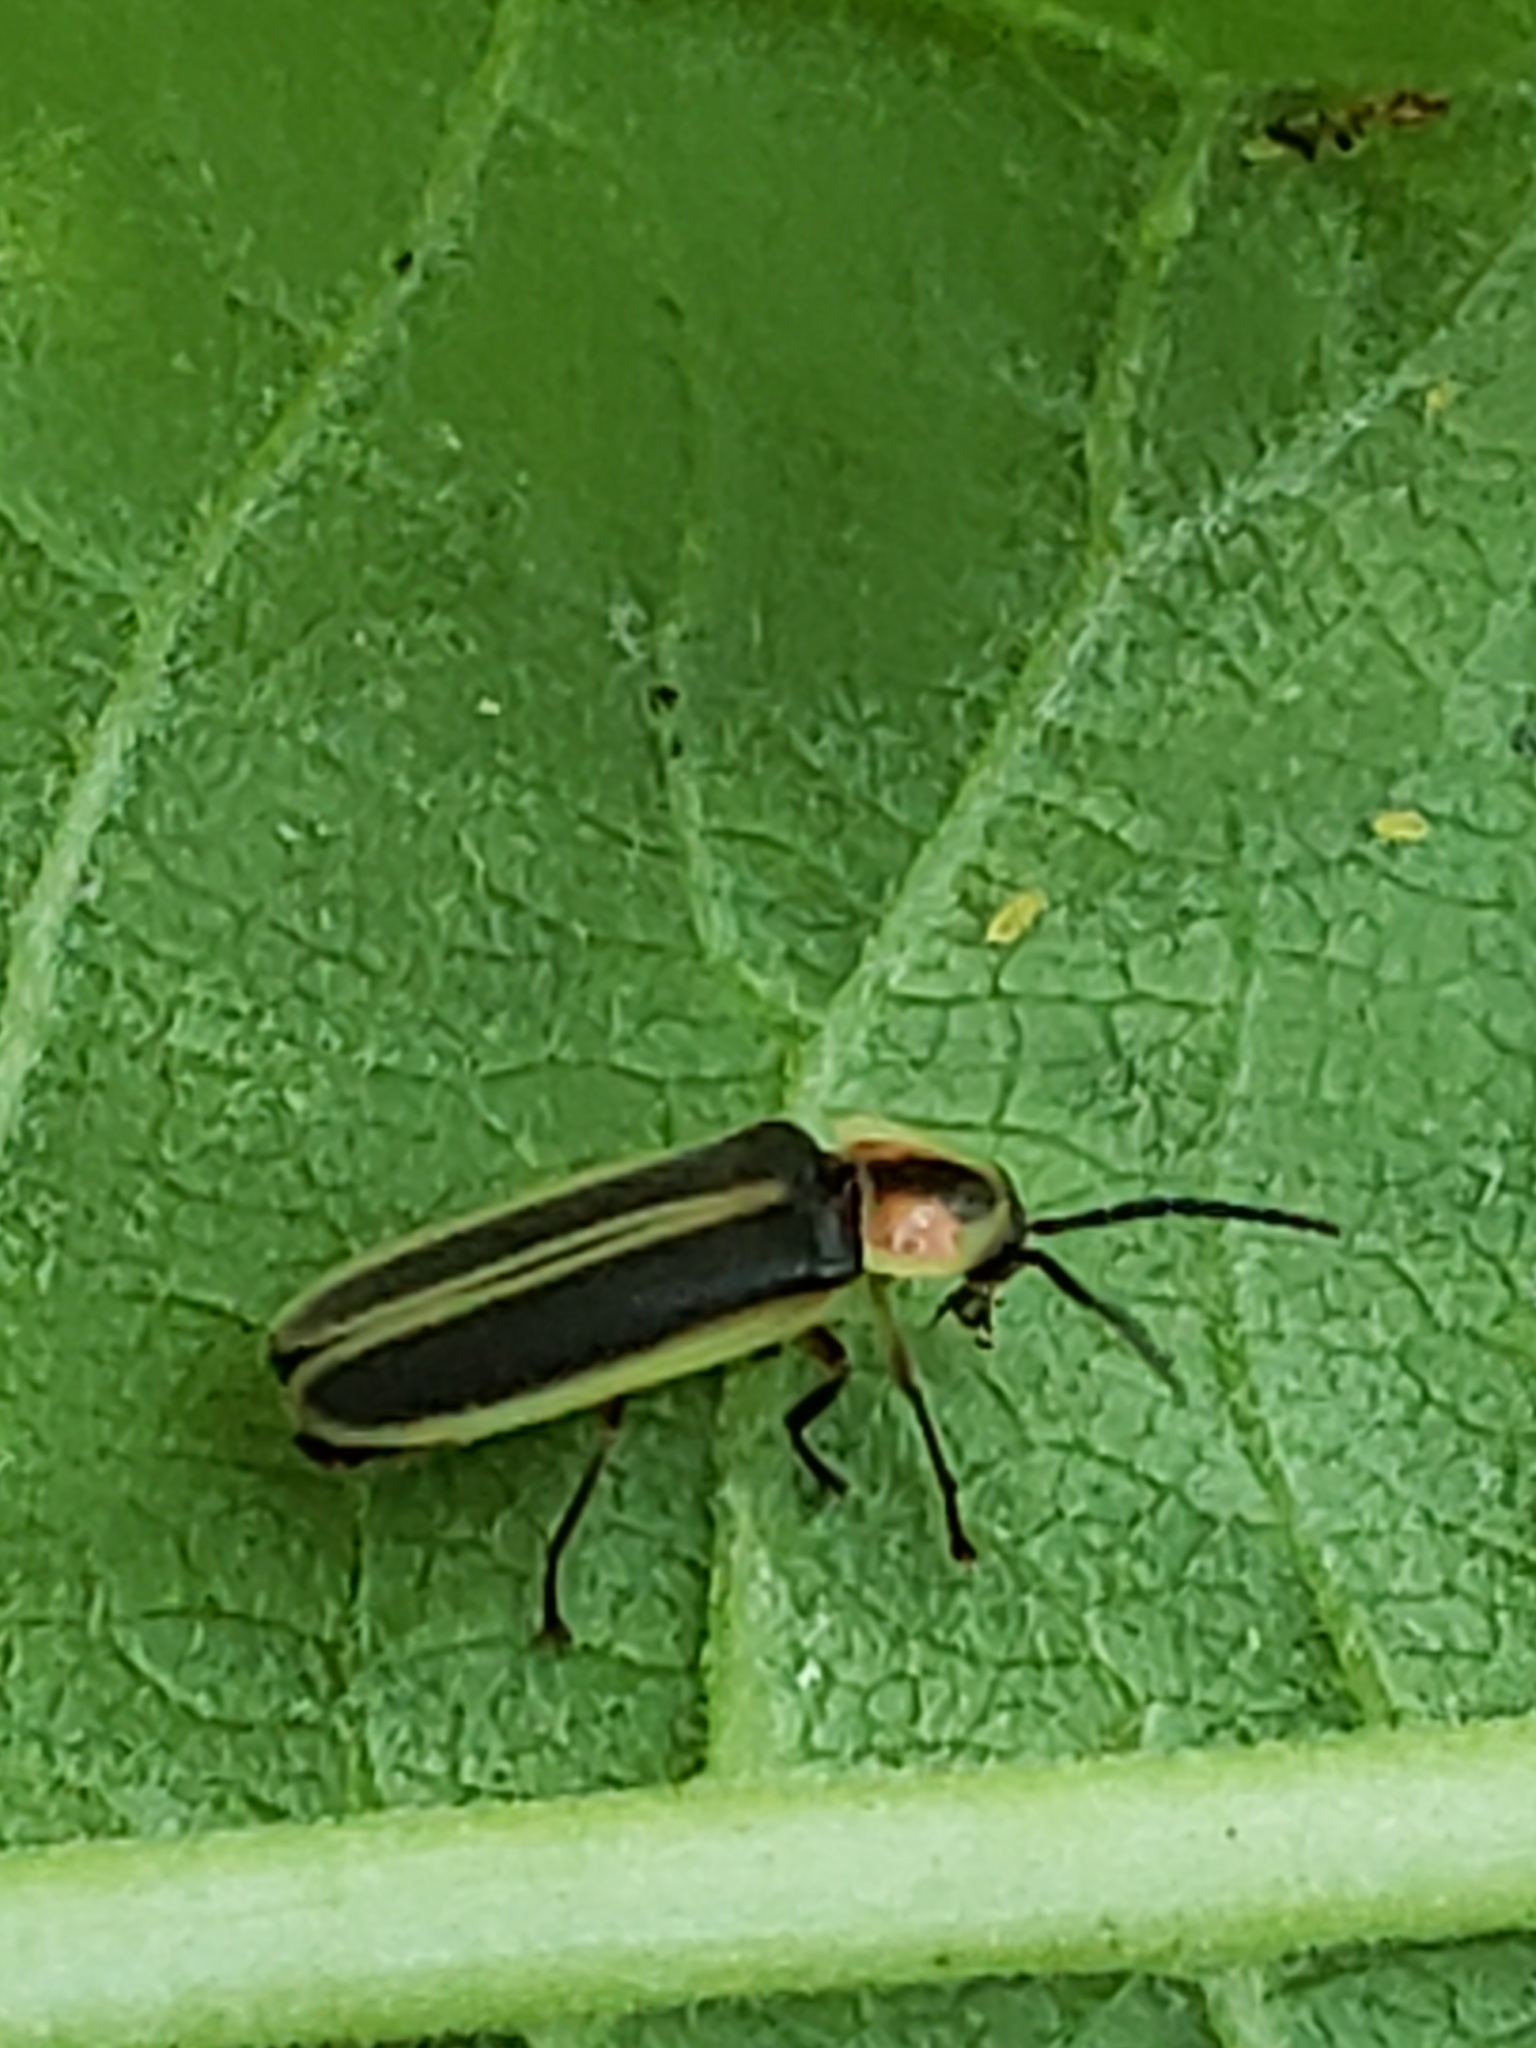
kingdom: Animalia
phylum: Arthropoda
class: Insecta
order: Coleoptera
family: Lampyridae
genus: Photinus
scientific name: Photinus pyralis
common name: Big dipper firefly
